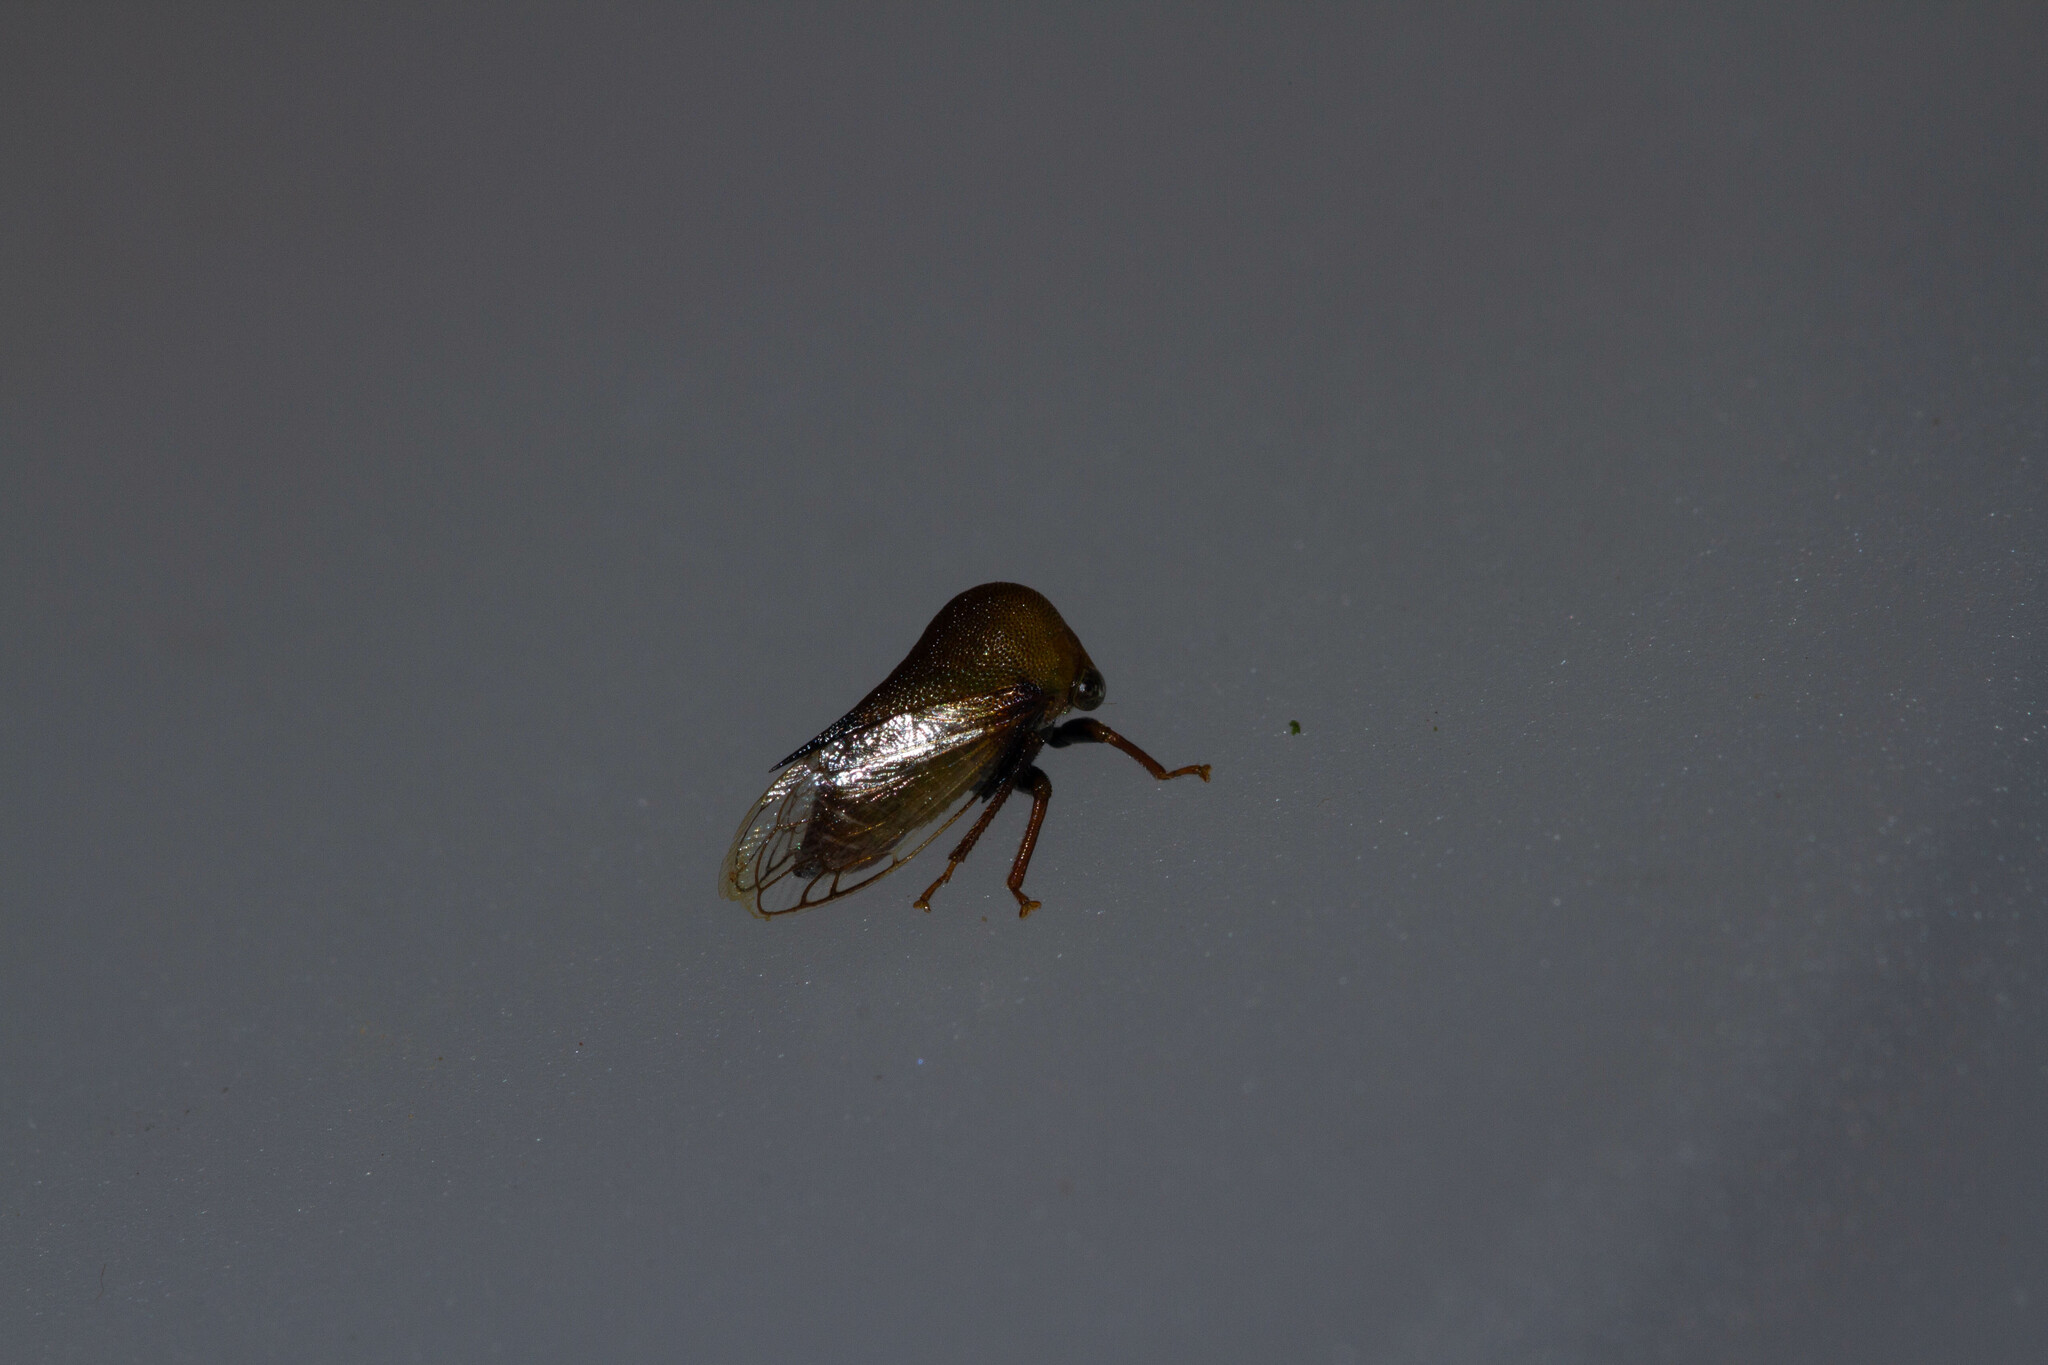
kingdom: Animalia
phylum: Arthropoda
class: Insecta
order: Hemiptera
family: Membracidae
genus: Procyrta
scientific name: Procyrta pectoralis
